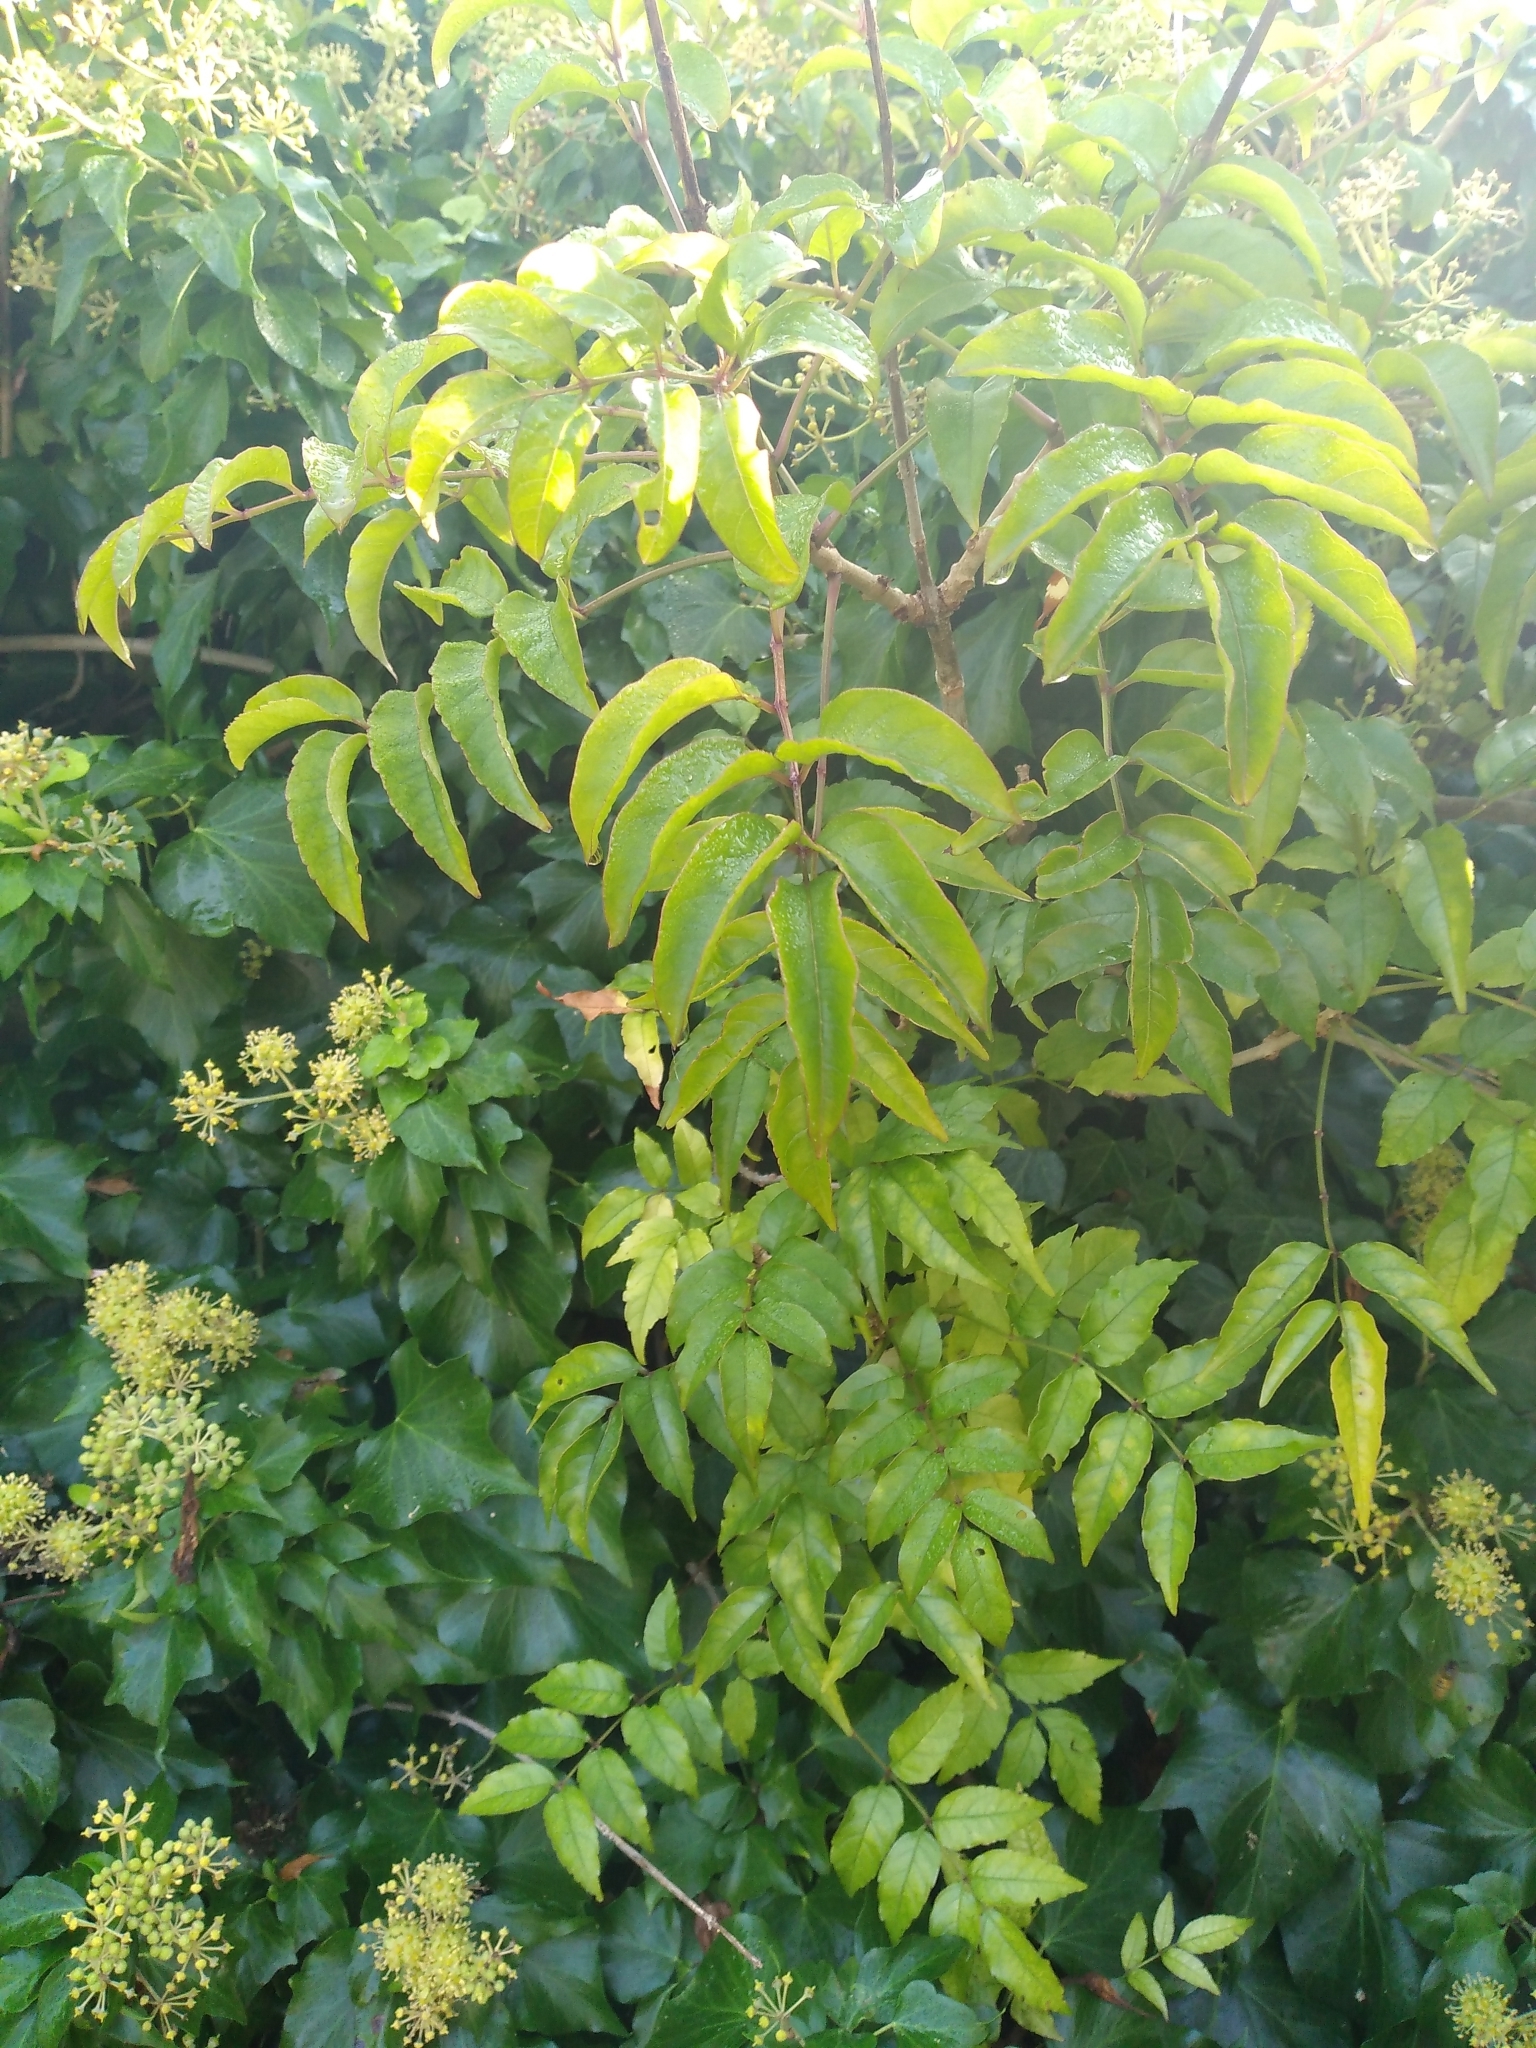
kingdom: Plantae
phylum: Tracheophyta
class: Magnoliopsida
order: Lamiales
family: Bignoniaceae
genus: Podranea
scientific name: Podranea ricasoliana
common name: Zimbabwe creeper
